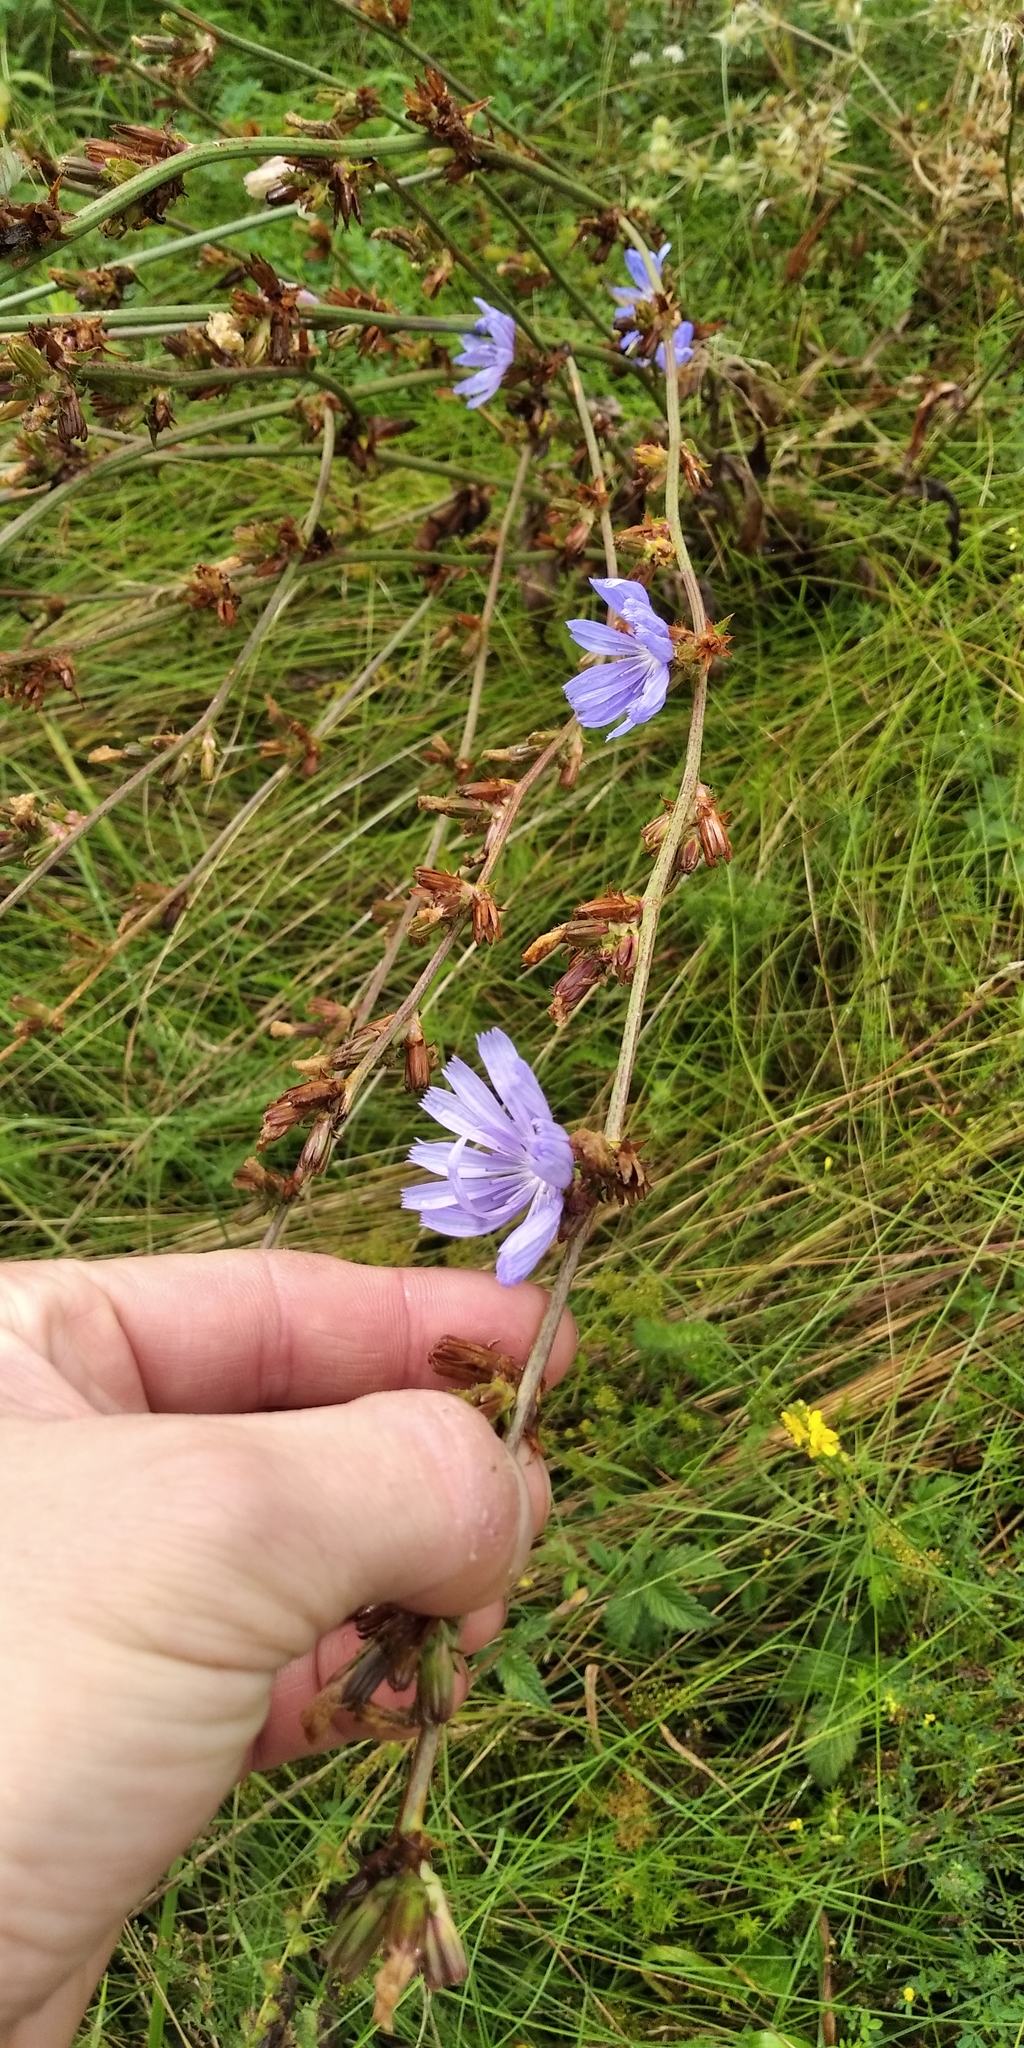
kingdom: Plantae
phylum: Tracheophyta
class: Magnoliopsida
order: Asterales
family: Asteraceae
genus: Cichorium
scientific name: Cichorium intybus
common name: Chicory
